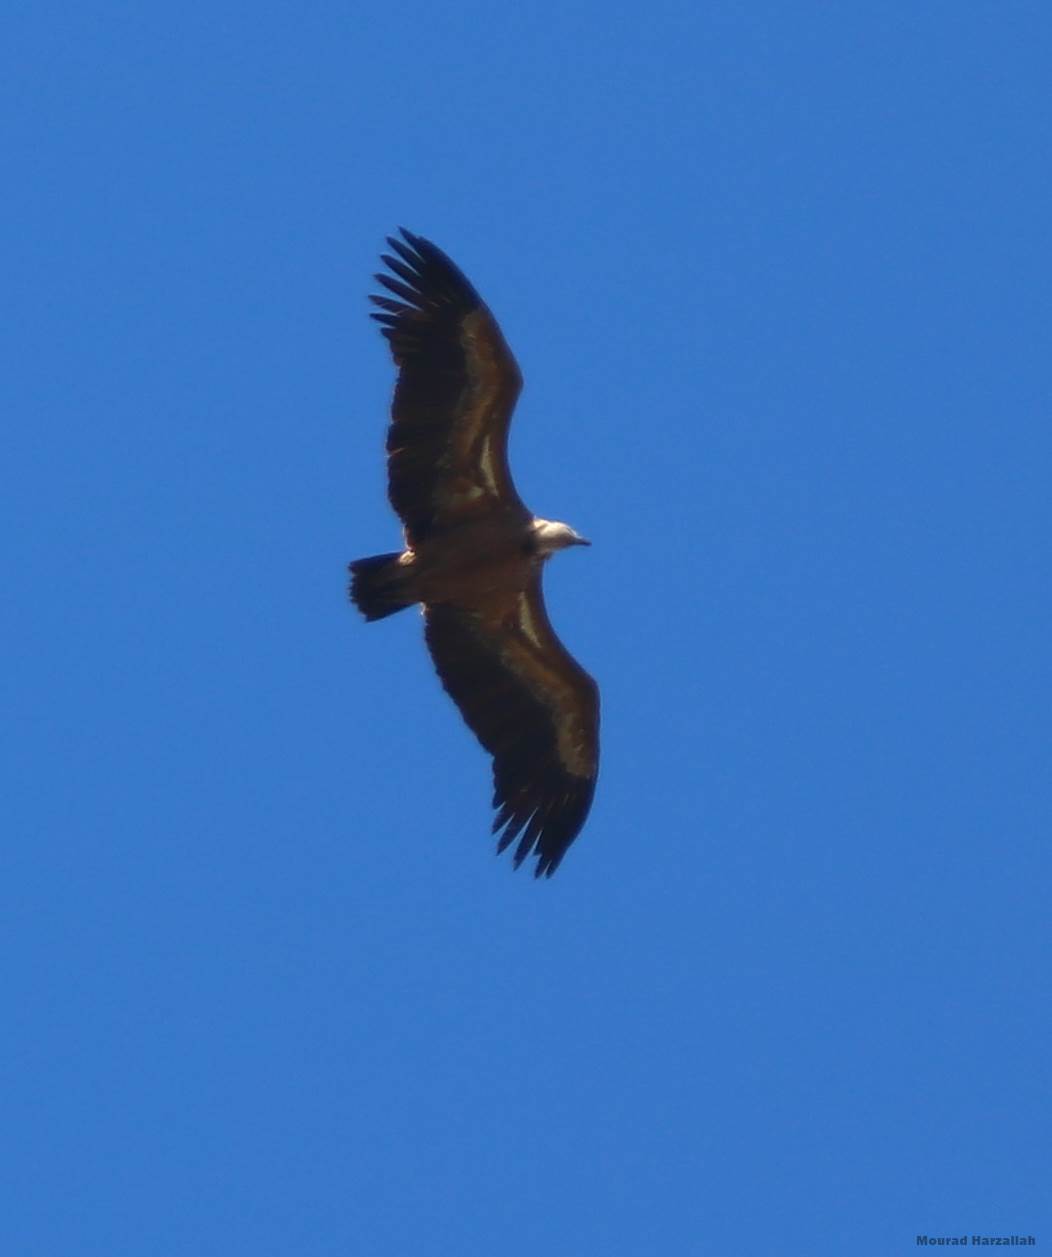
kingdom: Animalia
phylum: Chordata
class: Aves
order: Accipitriformes
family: Accipitridae
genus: Gyps
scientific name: Gyps fulvus
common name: Griffon vulture
